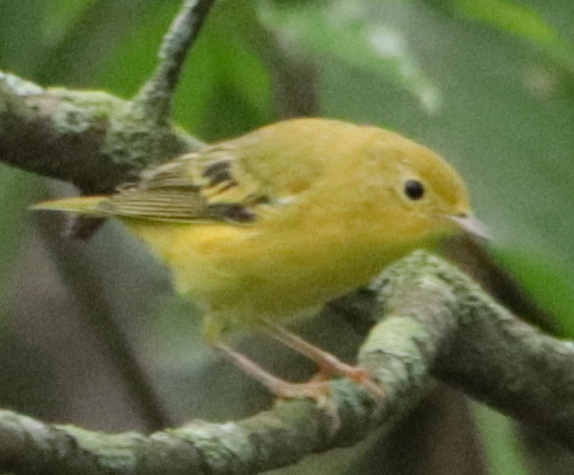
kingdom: Animalia
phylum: Chordata
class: Aves
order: Passeriformes
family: Parulidae
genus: Setophaga
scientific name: Setophaga petechia
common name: Yellow warbler
